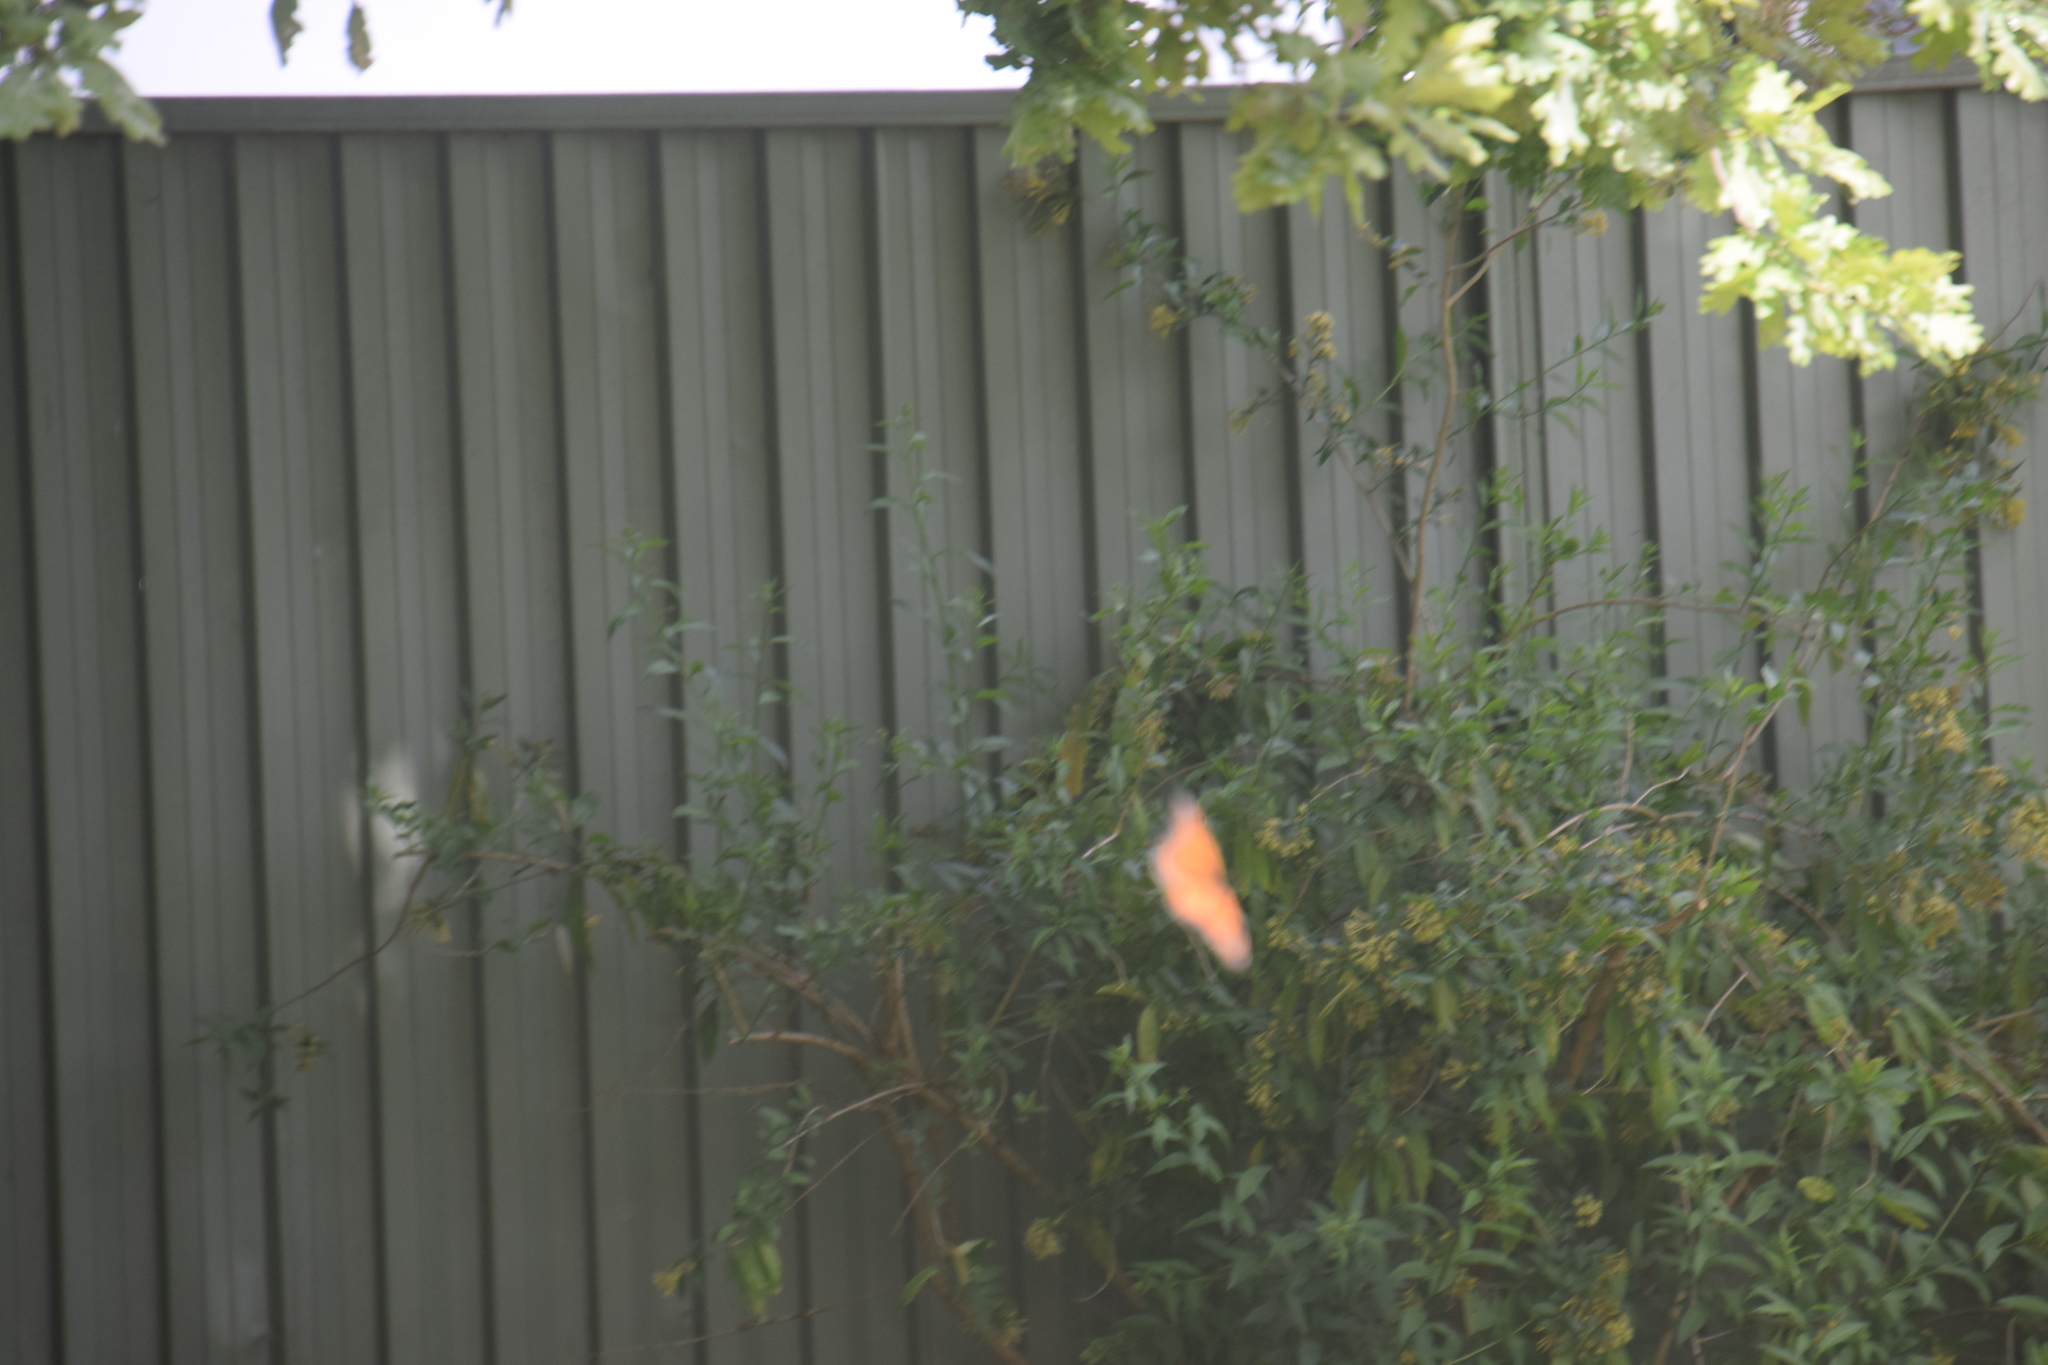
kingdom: Animalia
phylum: Arthropoda
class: Insecta
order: Lepidoptera
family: Nymphalidae
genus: Danaus
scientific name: Danaus plexippus
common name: Monarch
